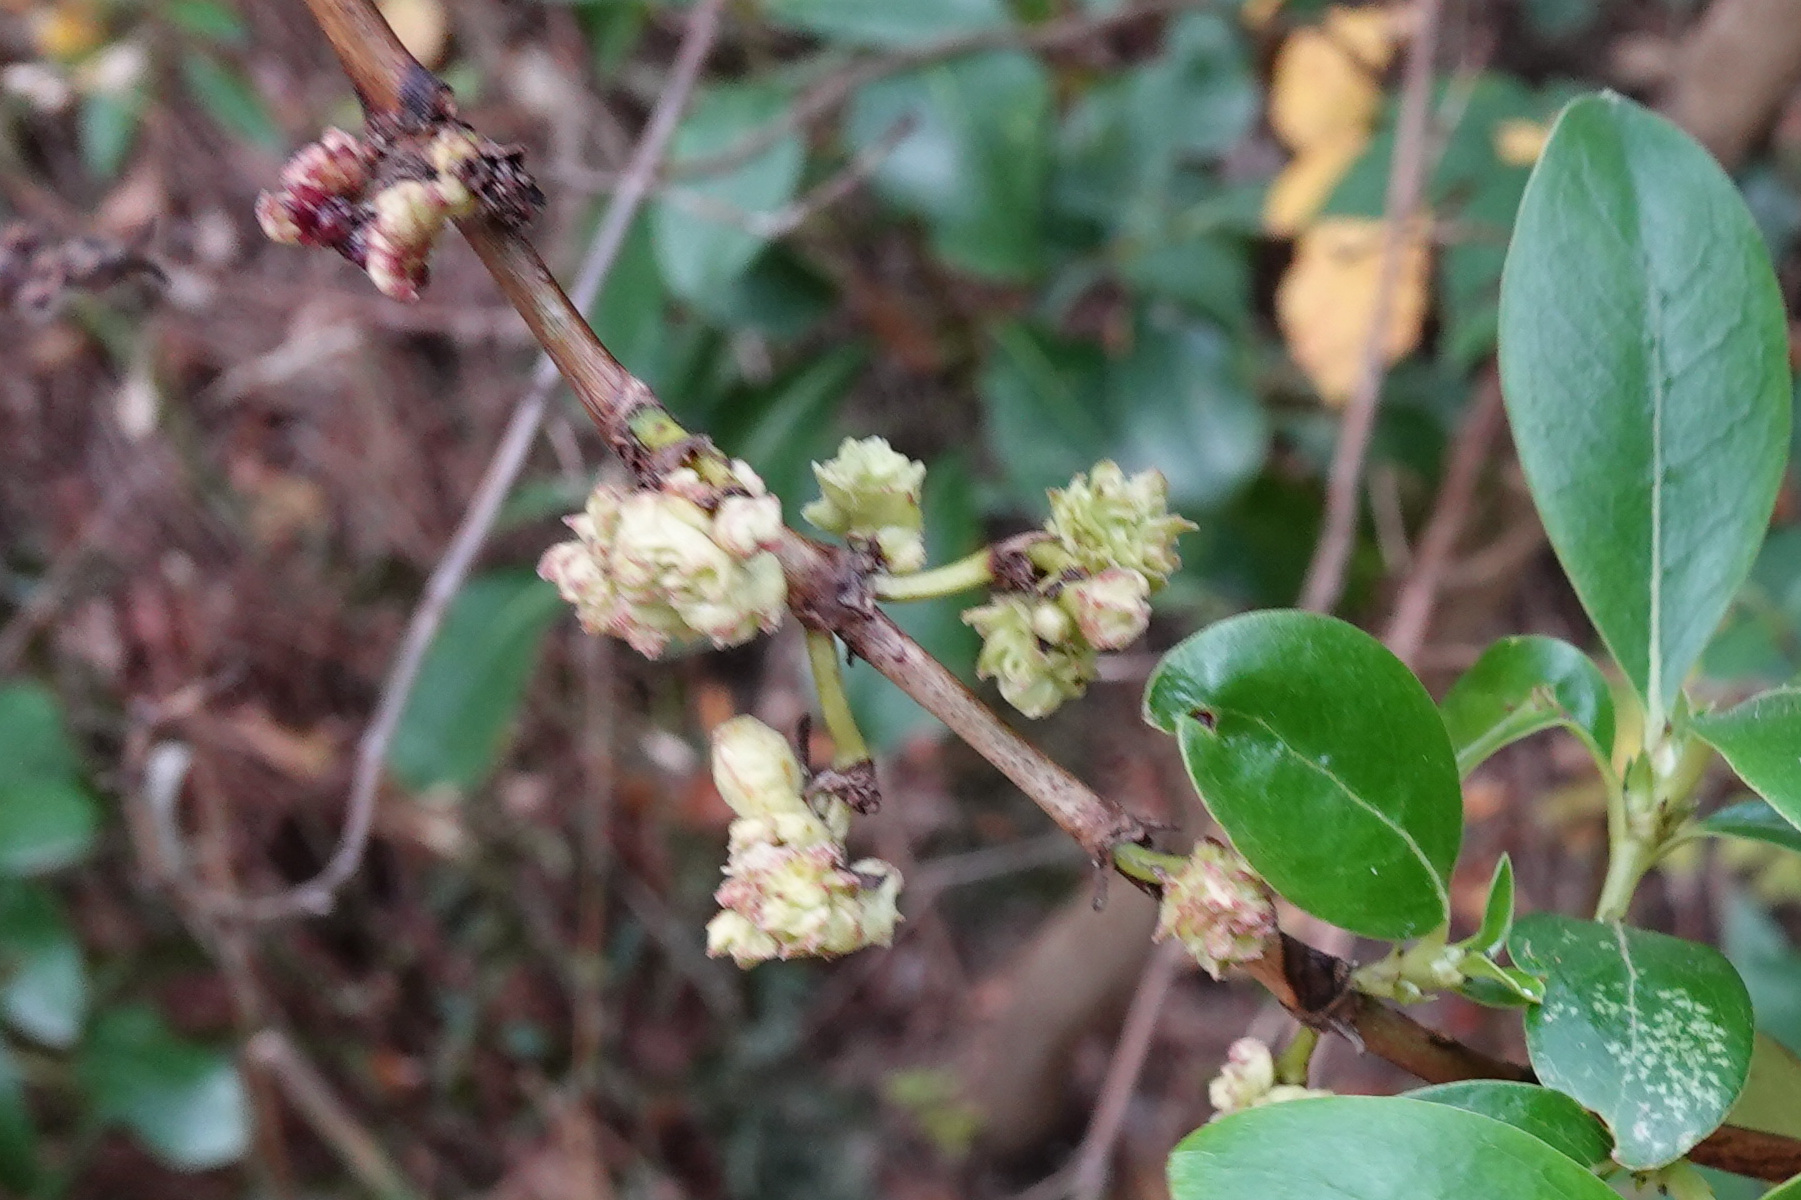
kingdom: Animalia
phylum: Arthropoda
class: Arachnida
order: Trombidiformes
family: Eriophyidae
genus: Acalitus
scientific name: Acalitus
